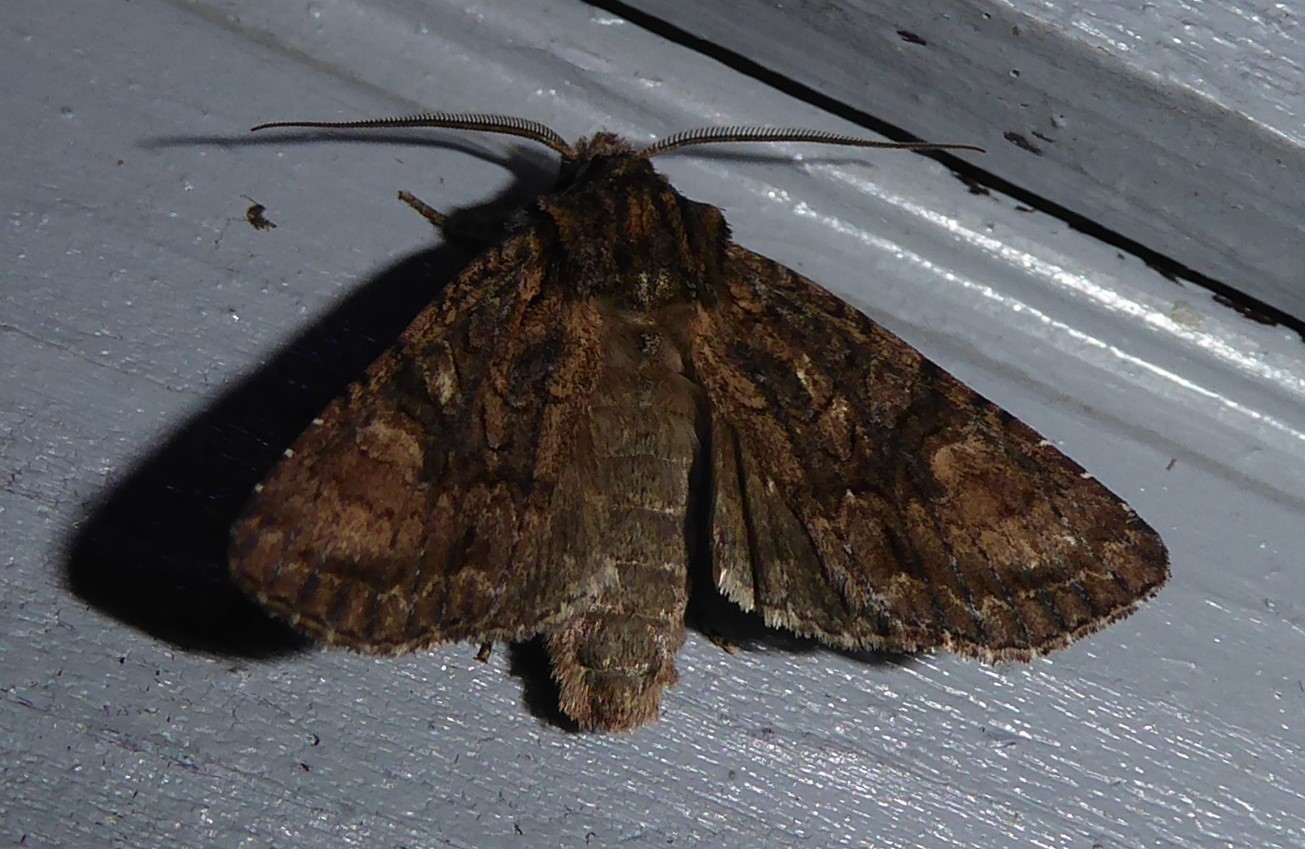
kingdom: Animalia
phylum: Arthropoda
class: Insecta
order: Lepidoptera
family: Noctuidae
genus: Ichneutica
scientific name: Ichneutica mutans
